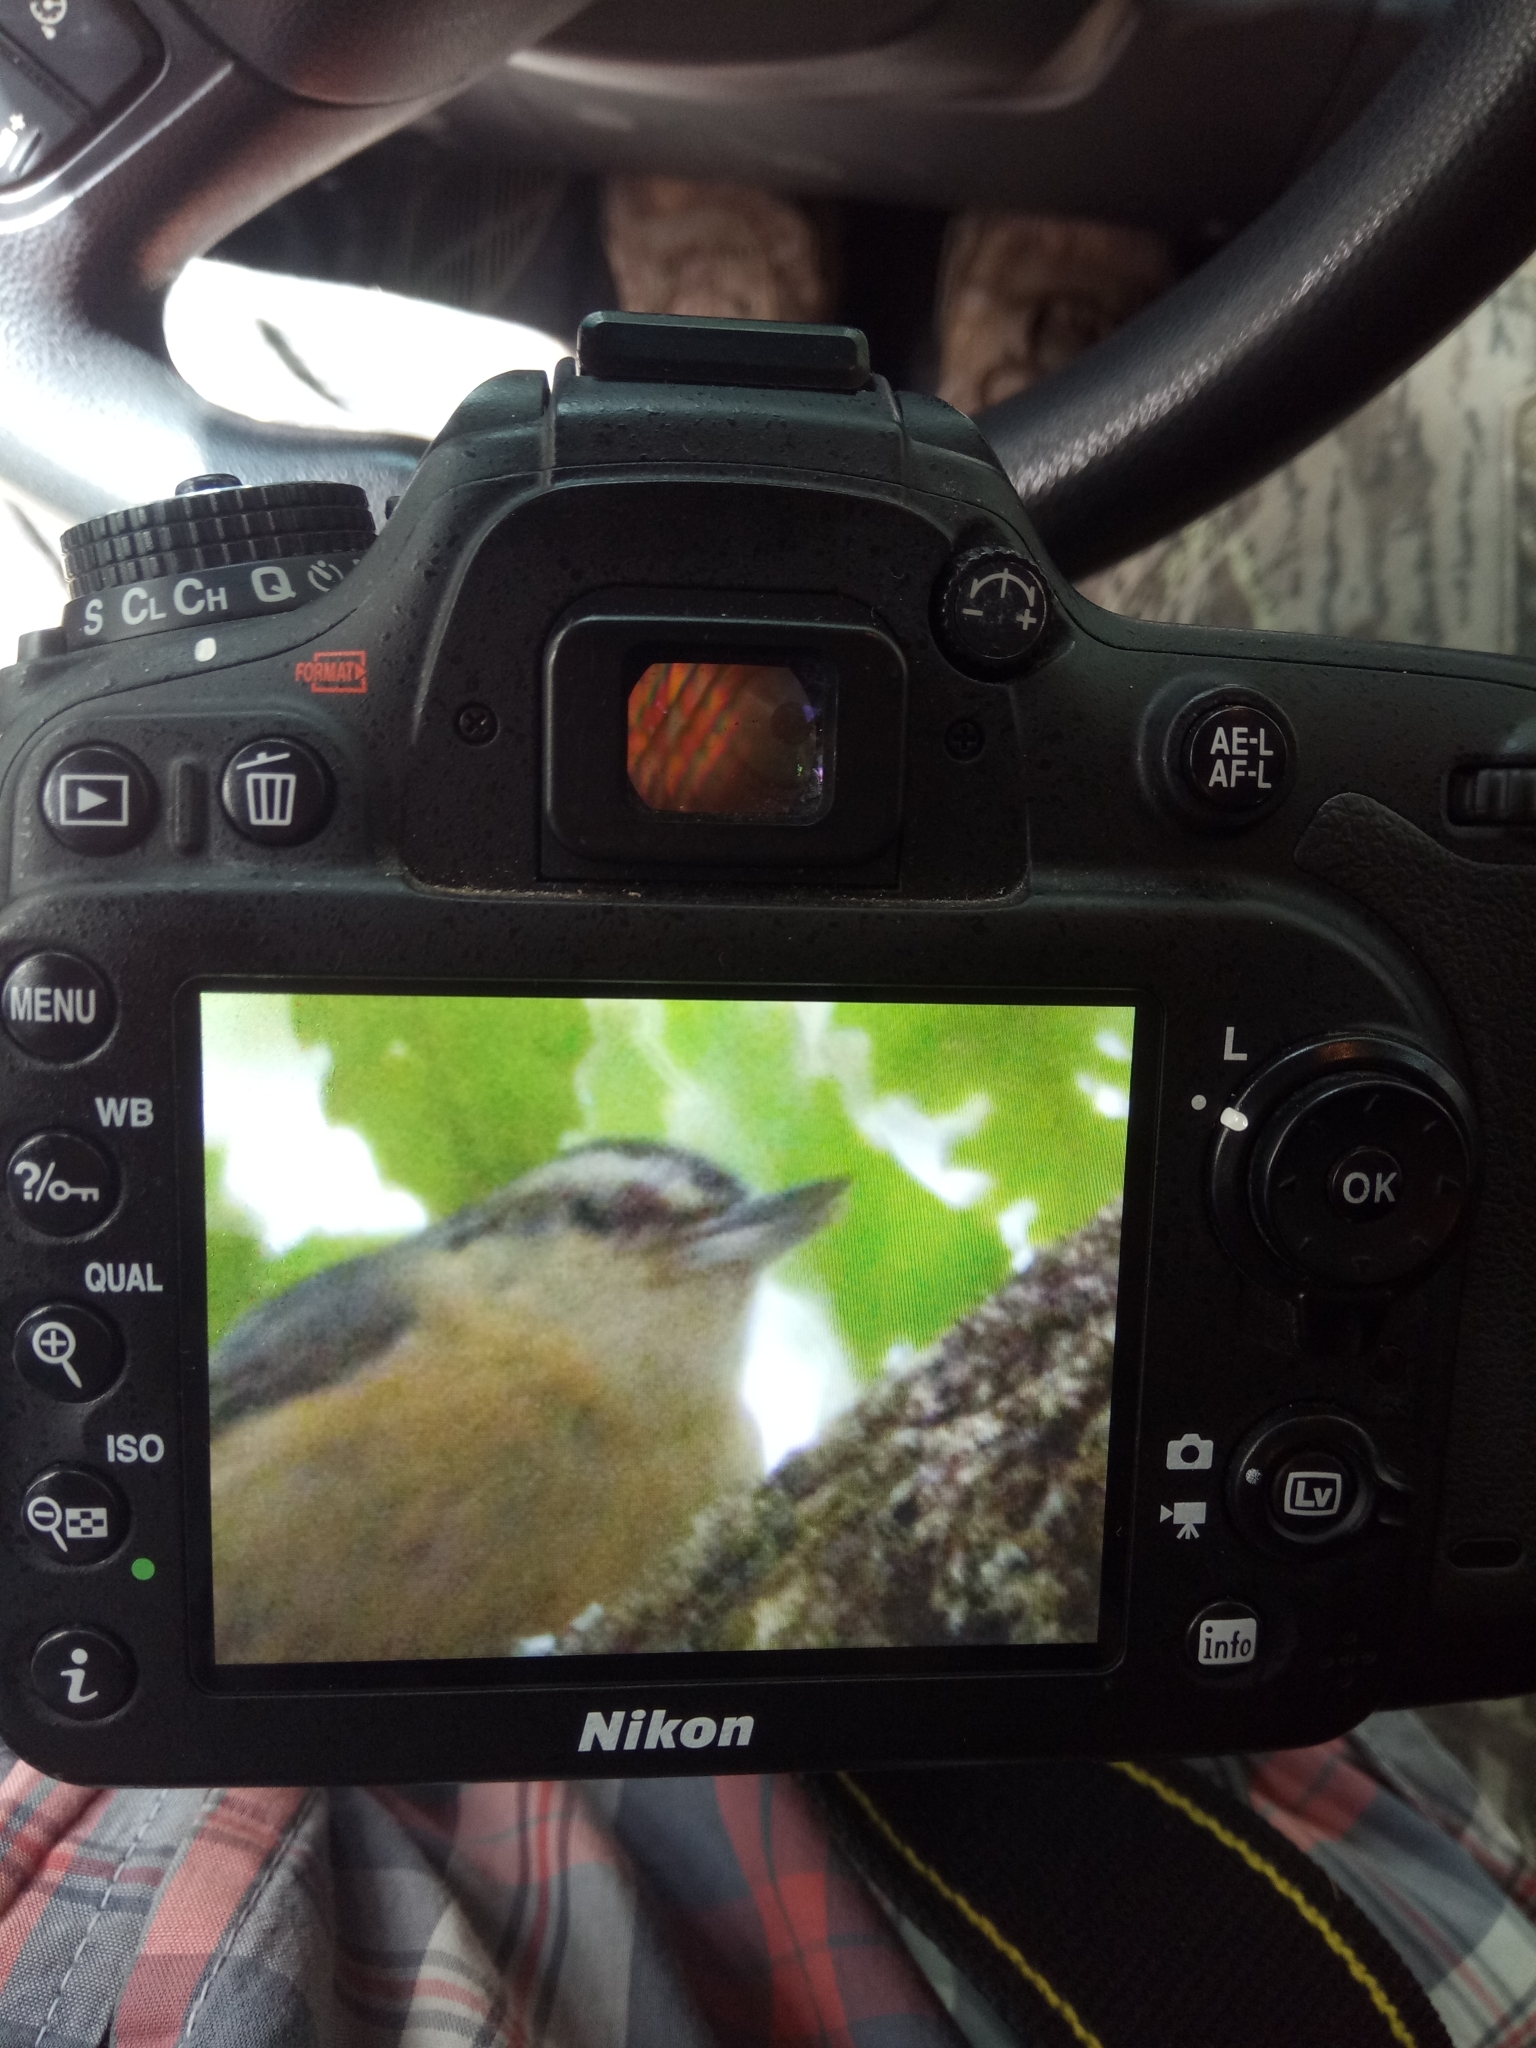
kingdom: Animalia
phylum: Chordata
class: Aves
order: Passeriformes
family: Sittidae
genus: Sitta
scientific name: Sitta ledanti
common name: Algerian nuthatch
